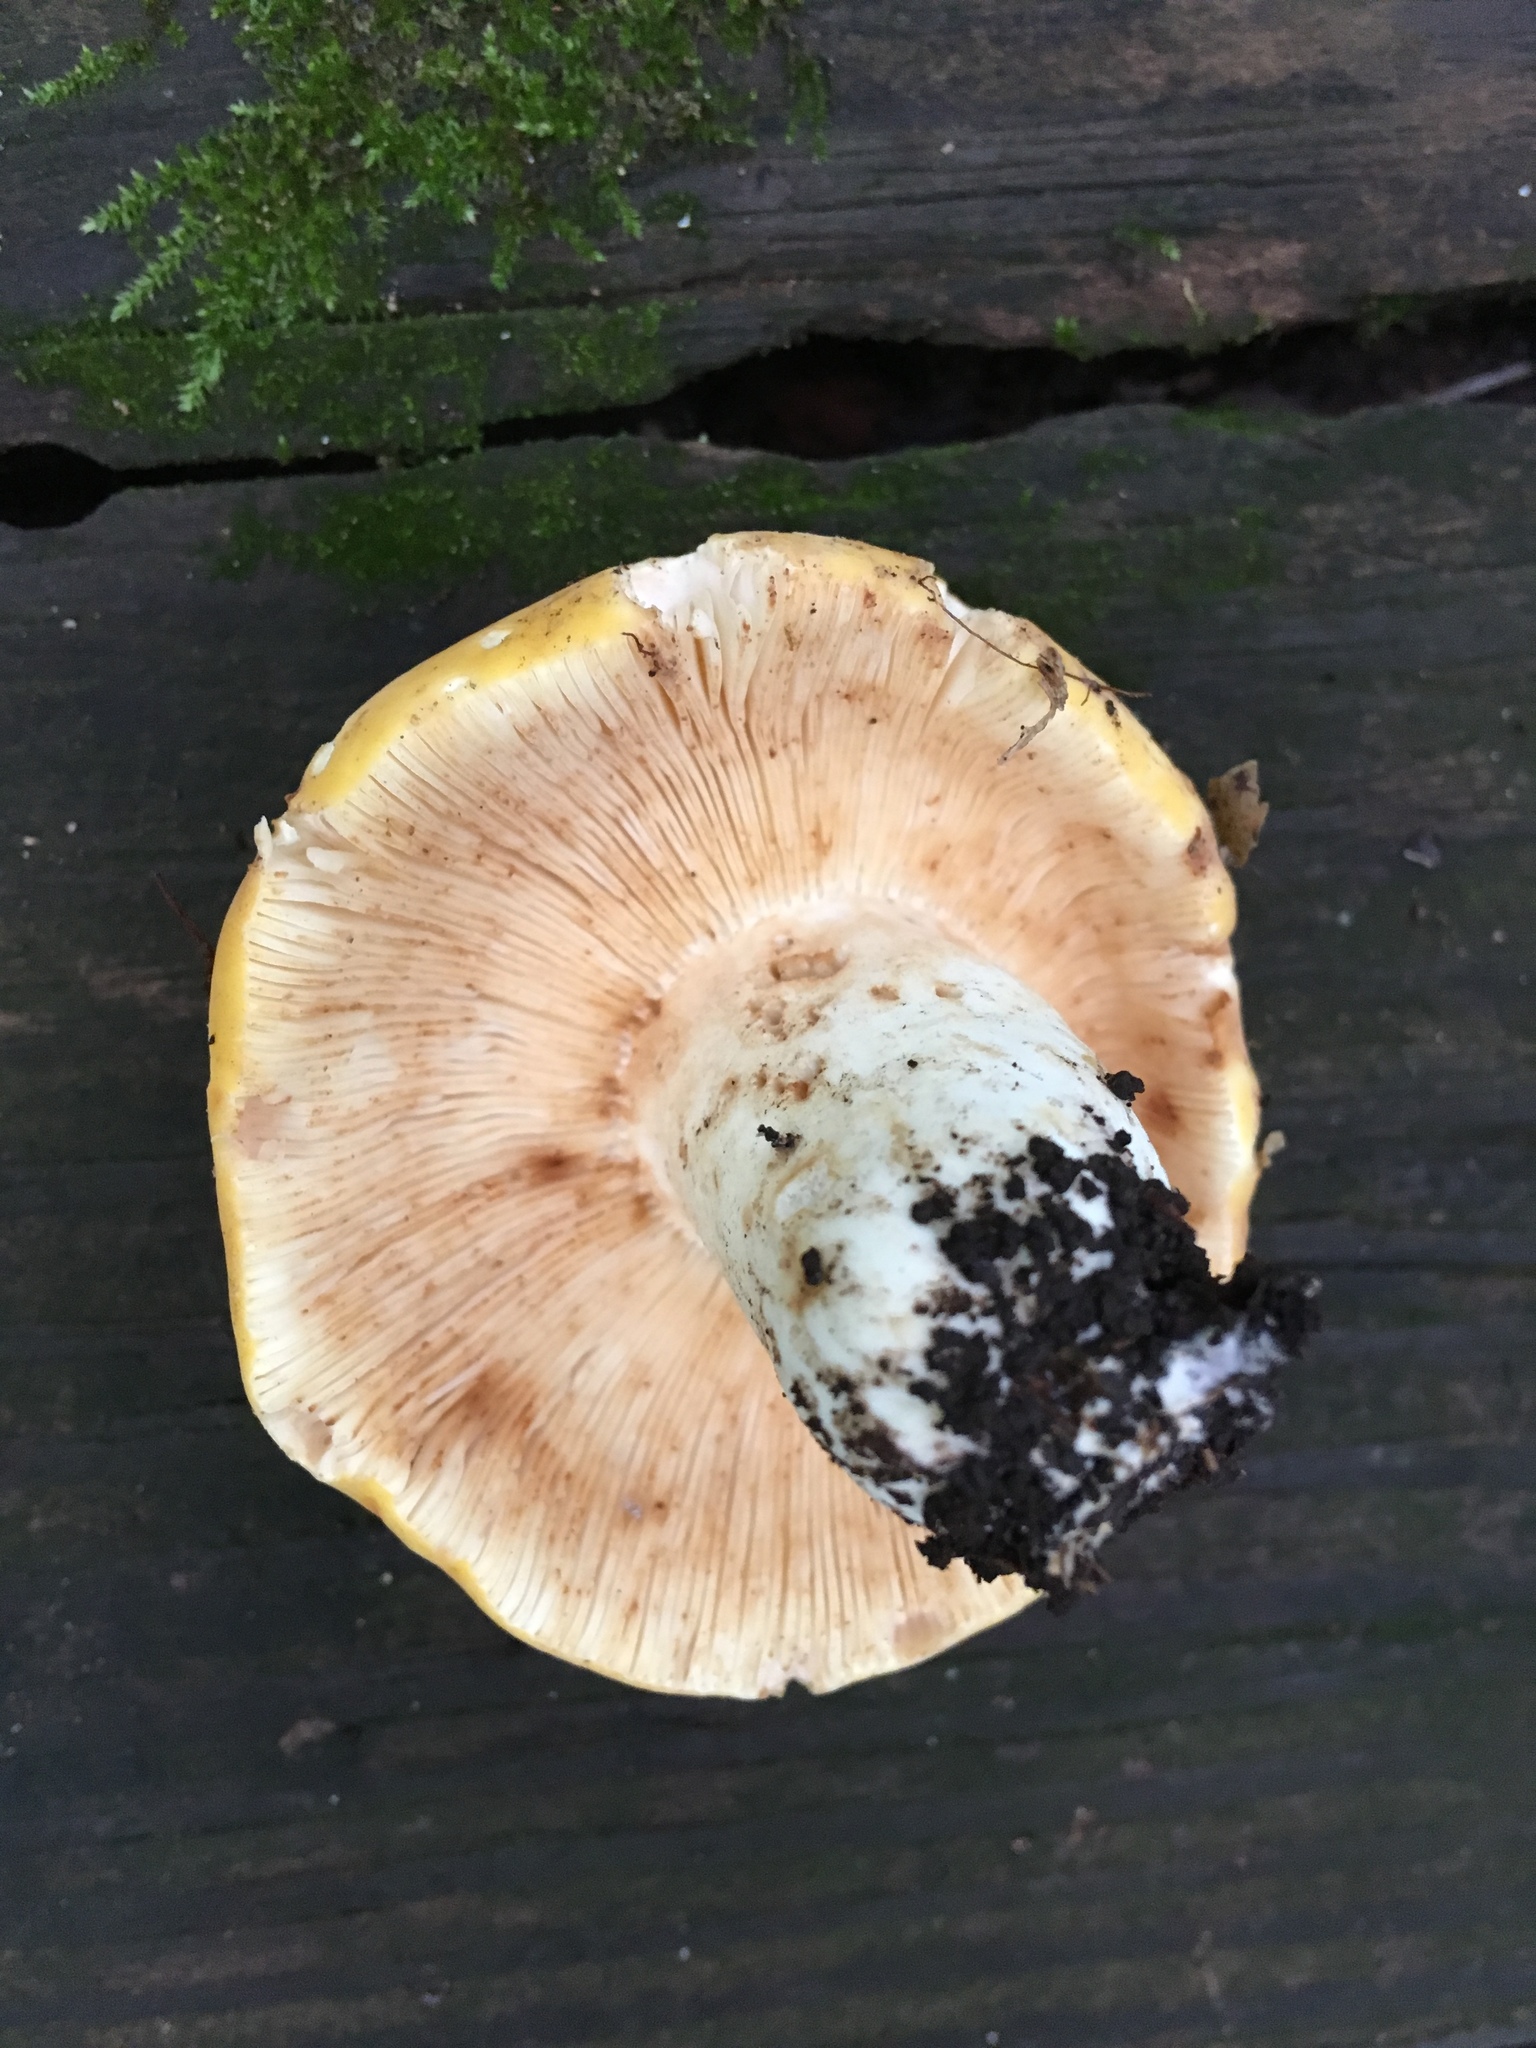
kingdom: Fungi
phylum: Basidiomycota
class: Agaricomycetes
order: Russulales
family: Russulaceae
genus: Russula
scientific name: Russula ochroleucoides
